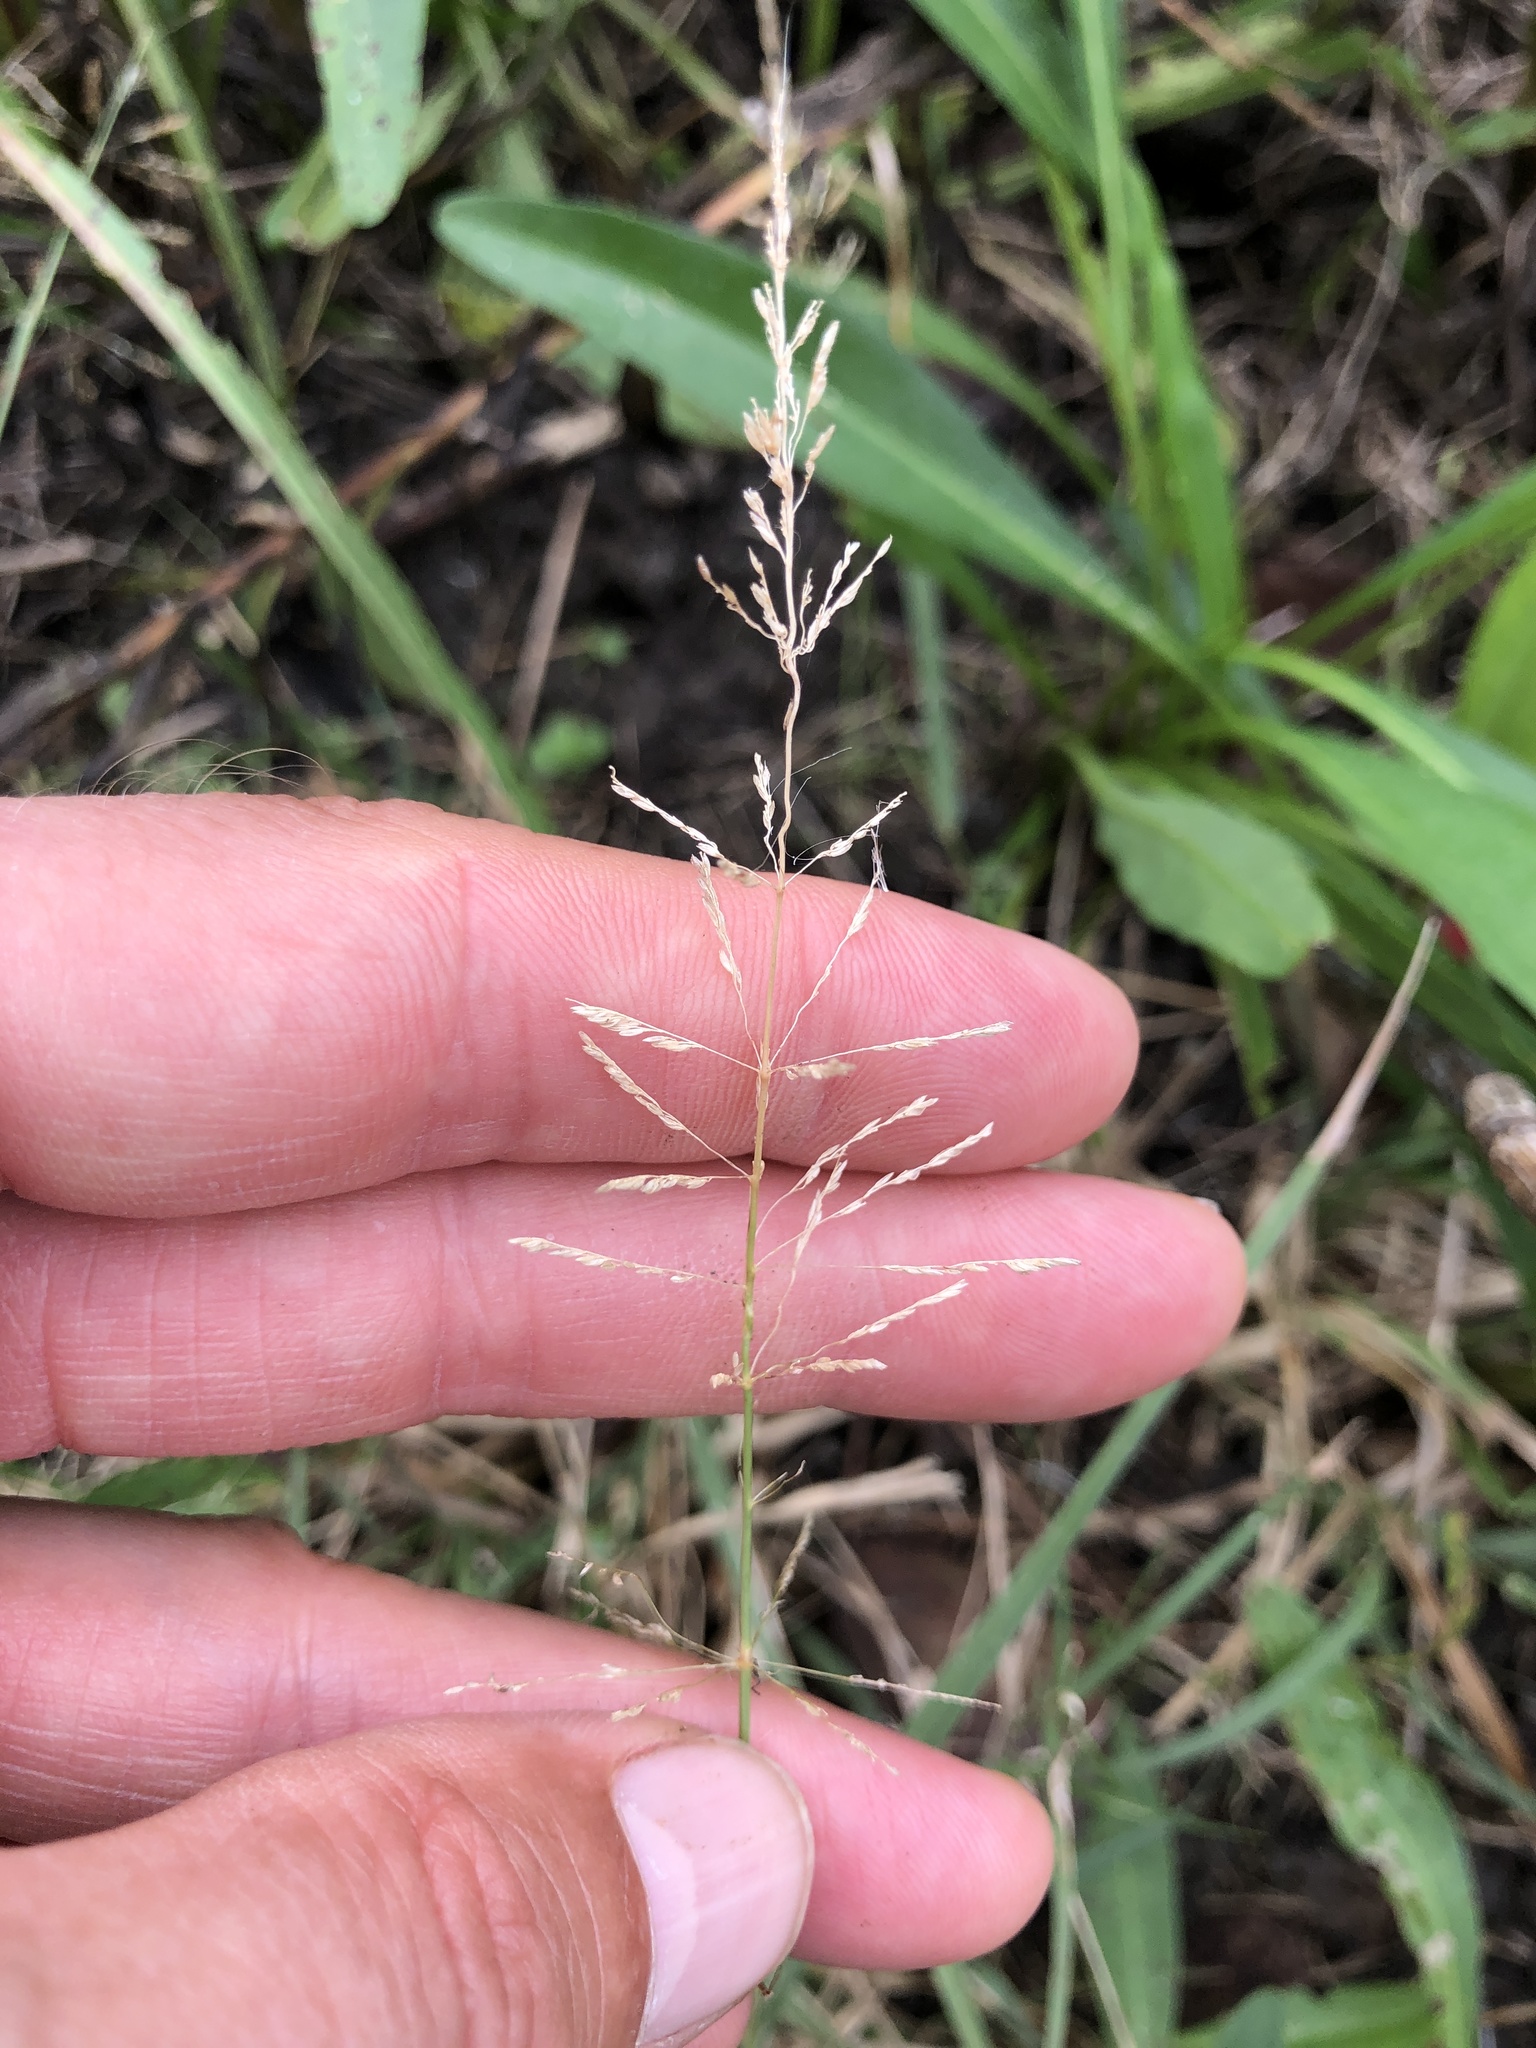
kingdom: Plantae
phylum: Tracheophyta
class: Liliopsida
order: Poales
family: Poaceae
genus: Sporobolus
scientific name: Sporobolus pyramidatus
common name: Whorled dropseed
